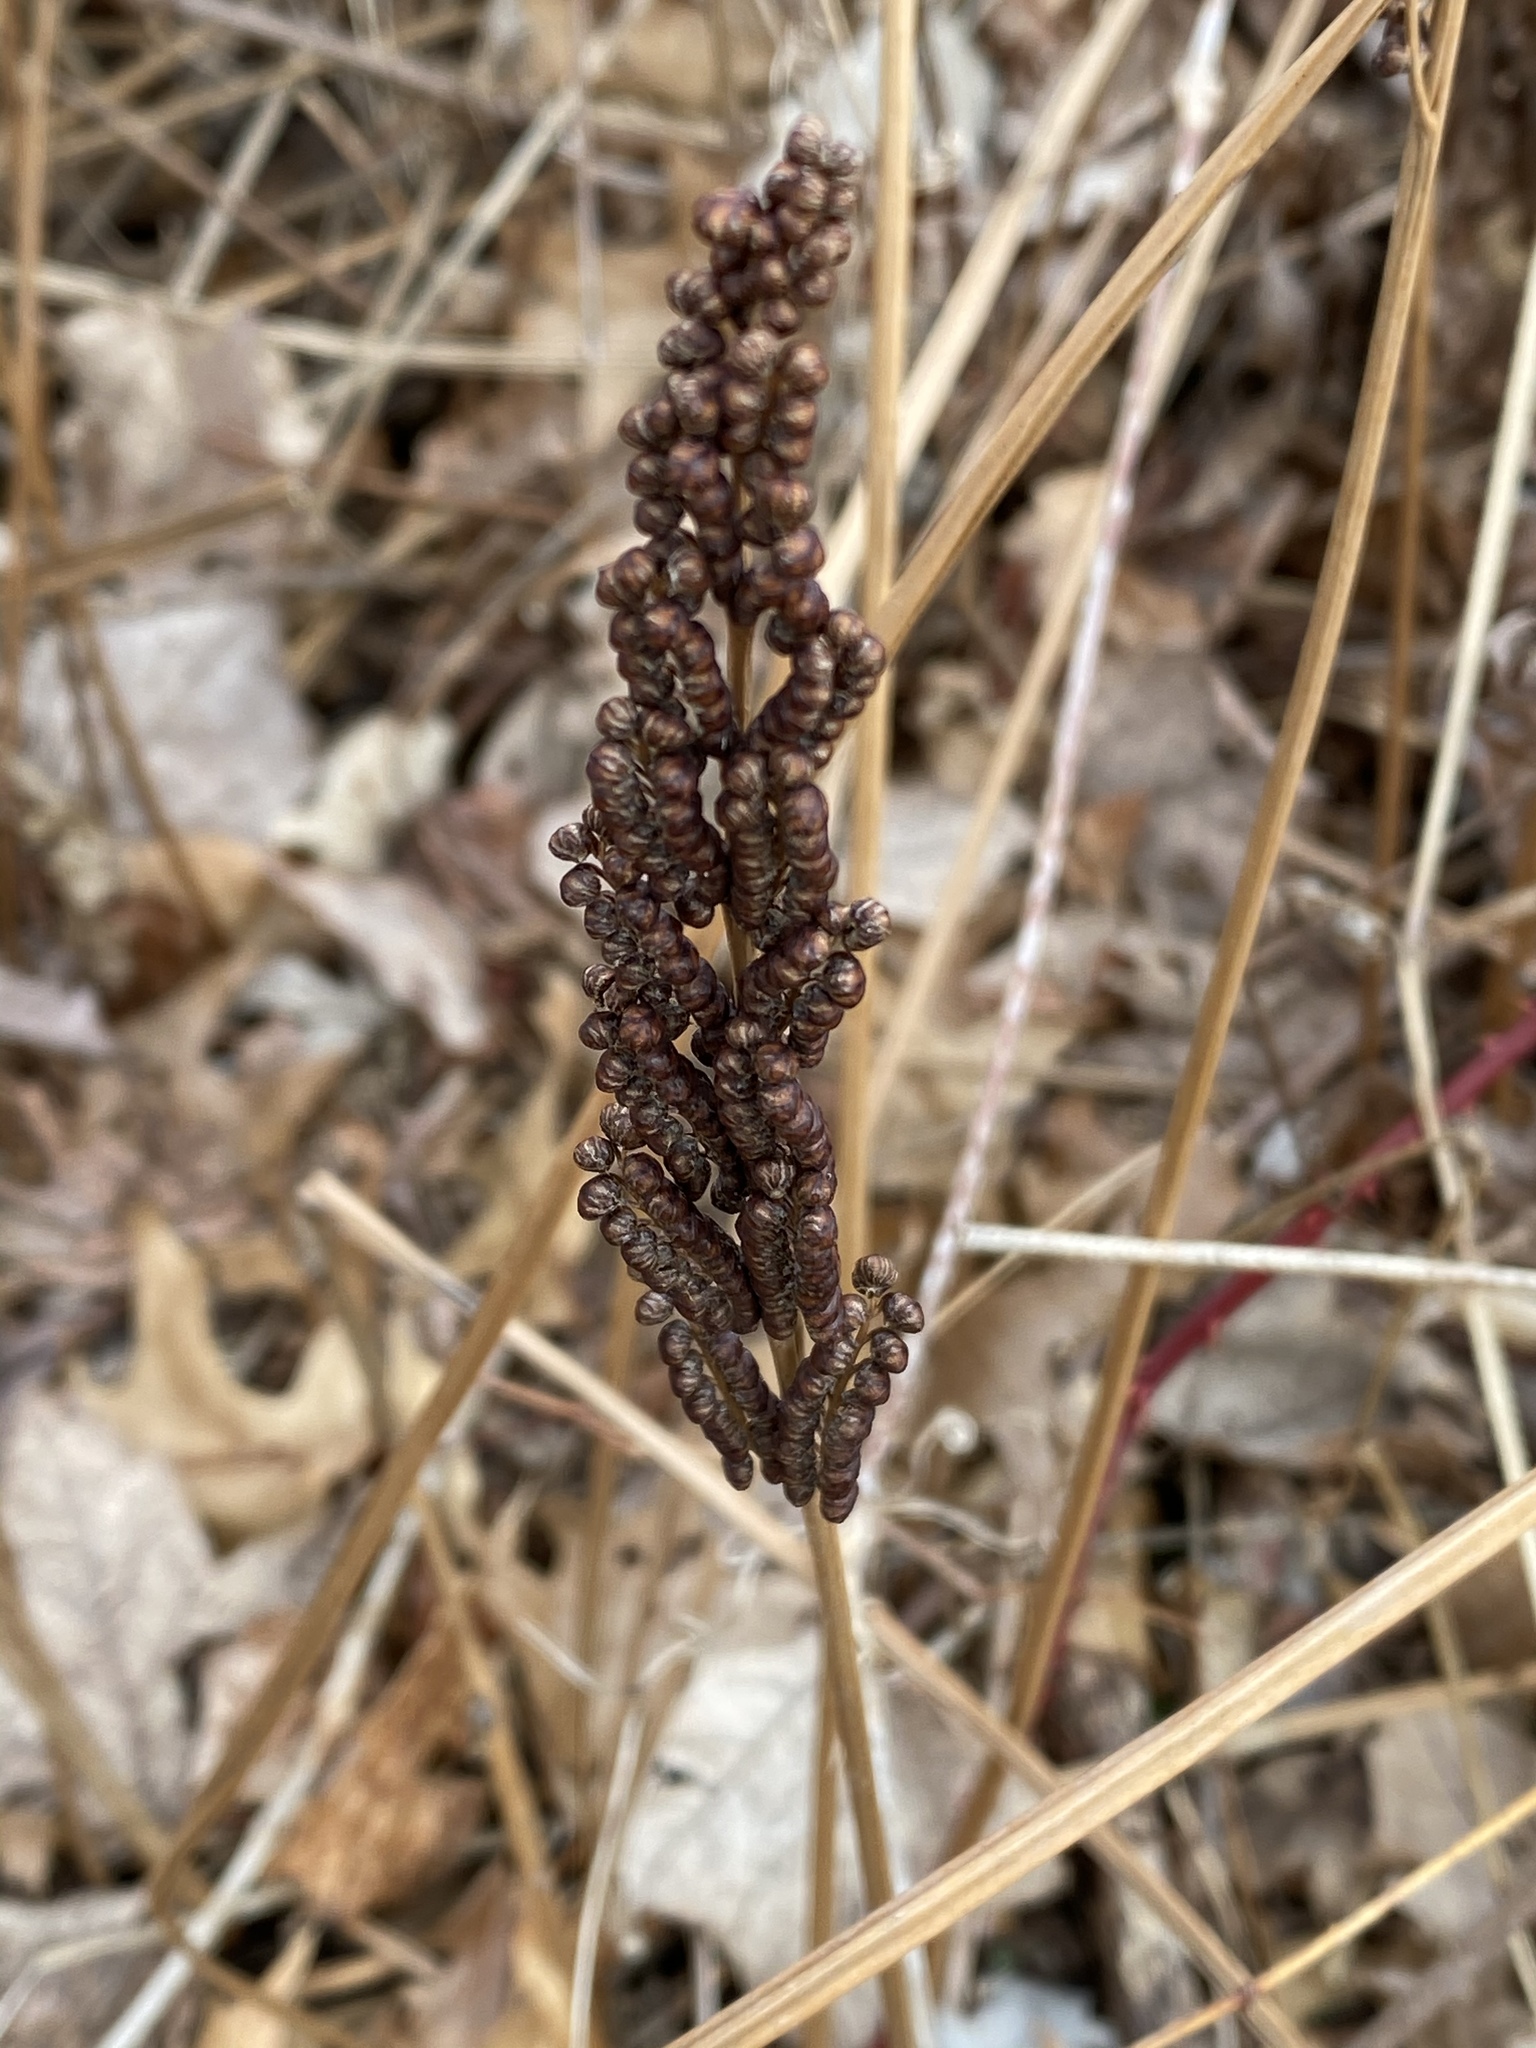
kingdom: Plantae
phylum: Tracheophyta
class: Polypodiopsida
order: Polypodiales
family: Onocleaceae
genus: Onoclea
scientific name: Onoclea sensibilis
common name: Sensitive fern
